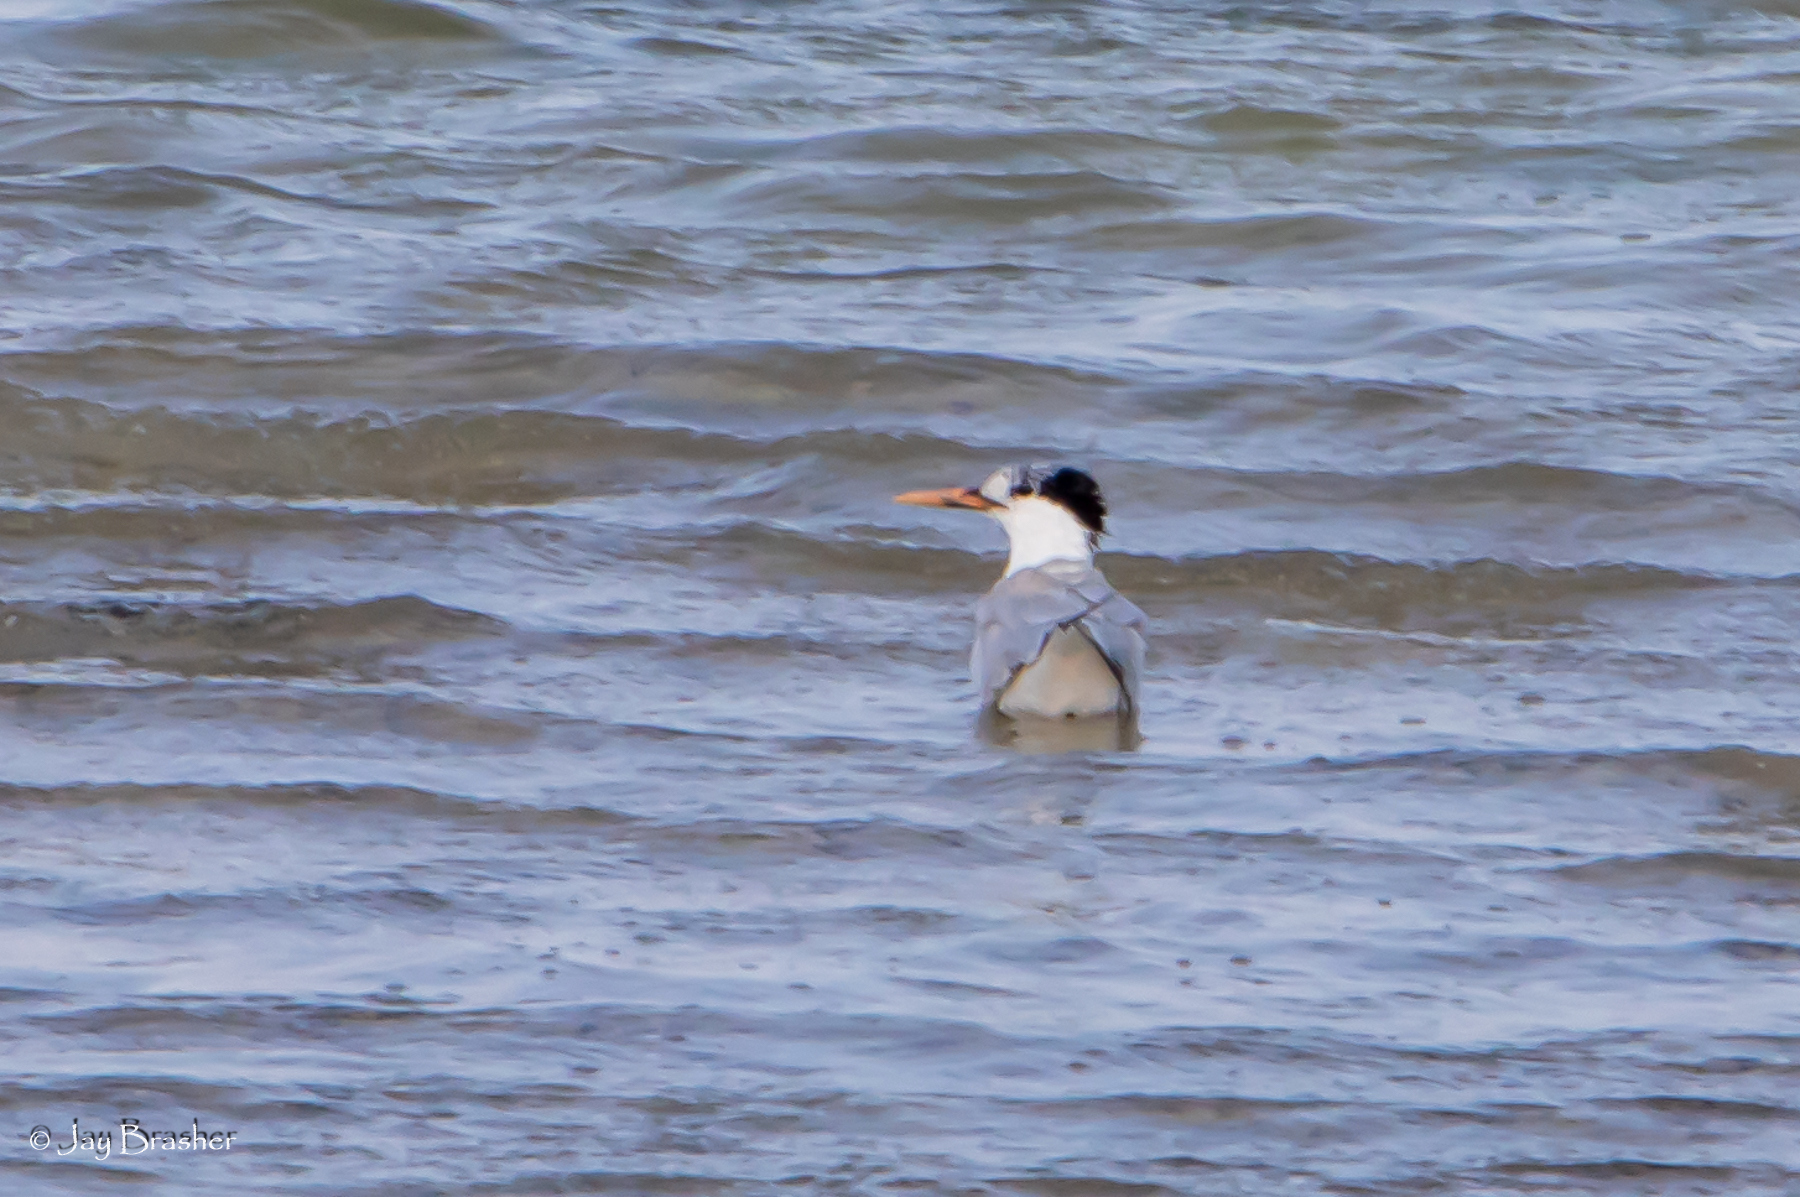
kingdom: Animalia
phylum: Chordata
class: Aves
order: Charadriiformes
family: Laridae
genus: Thalasseus
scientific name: Thalasseus maximus
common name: Royal tern
